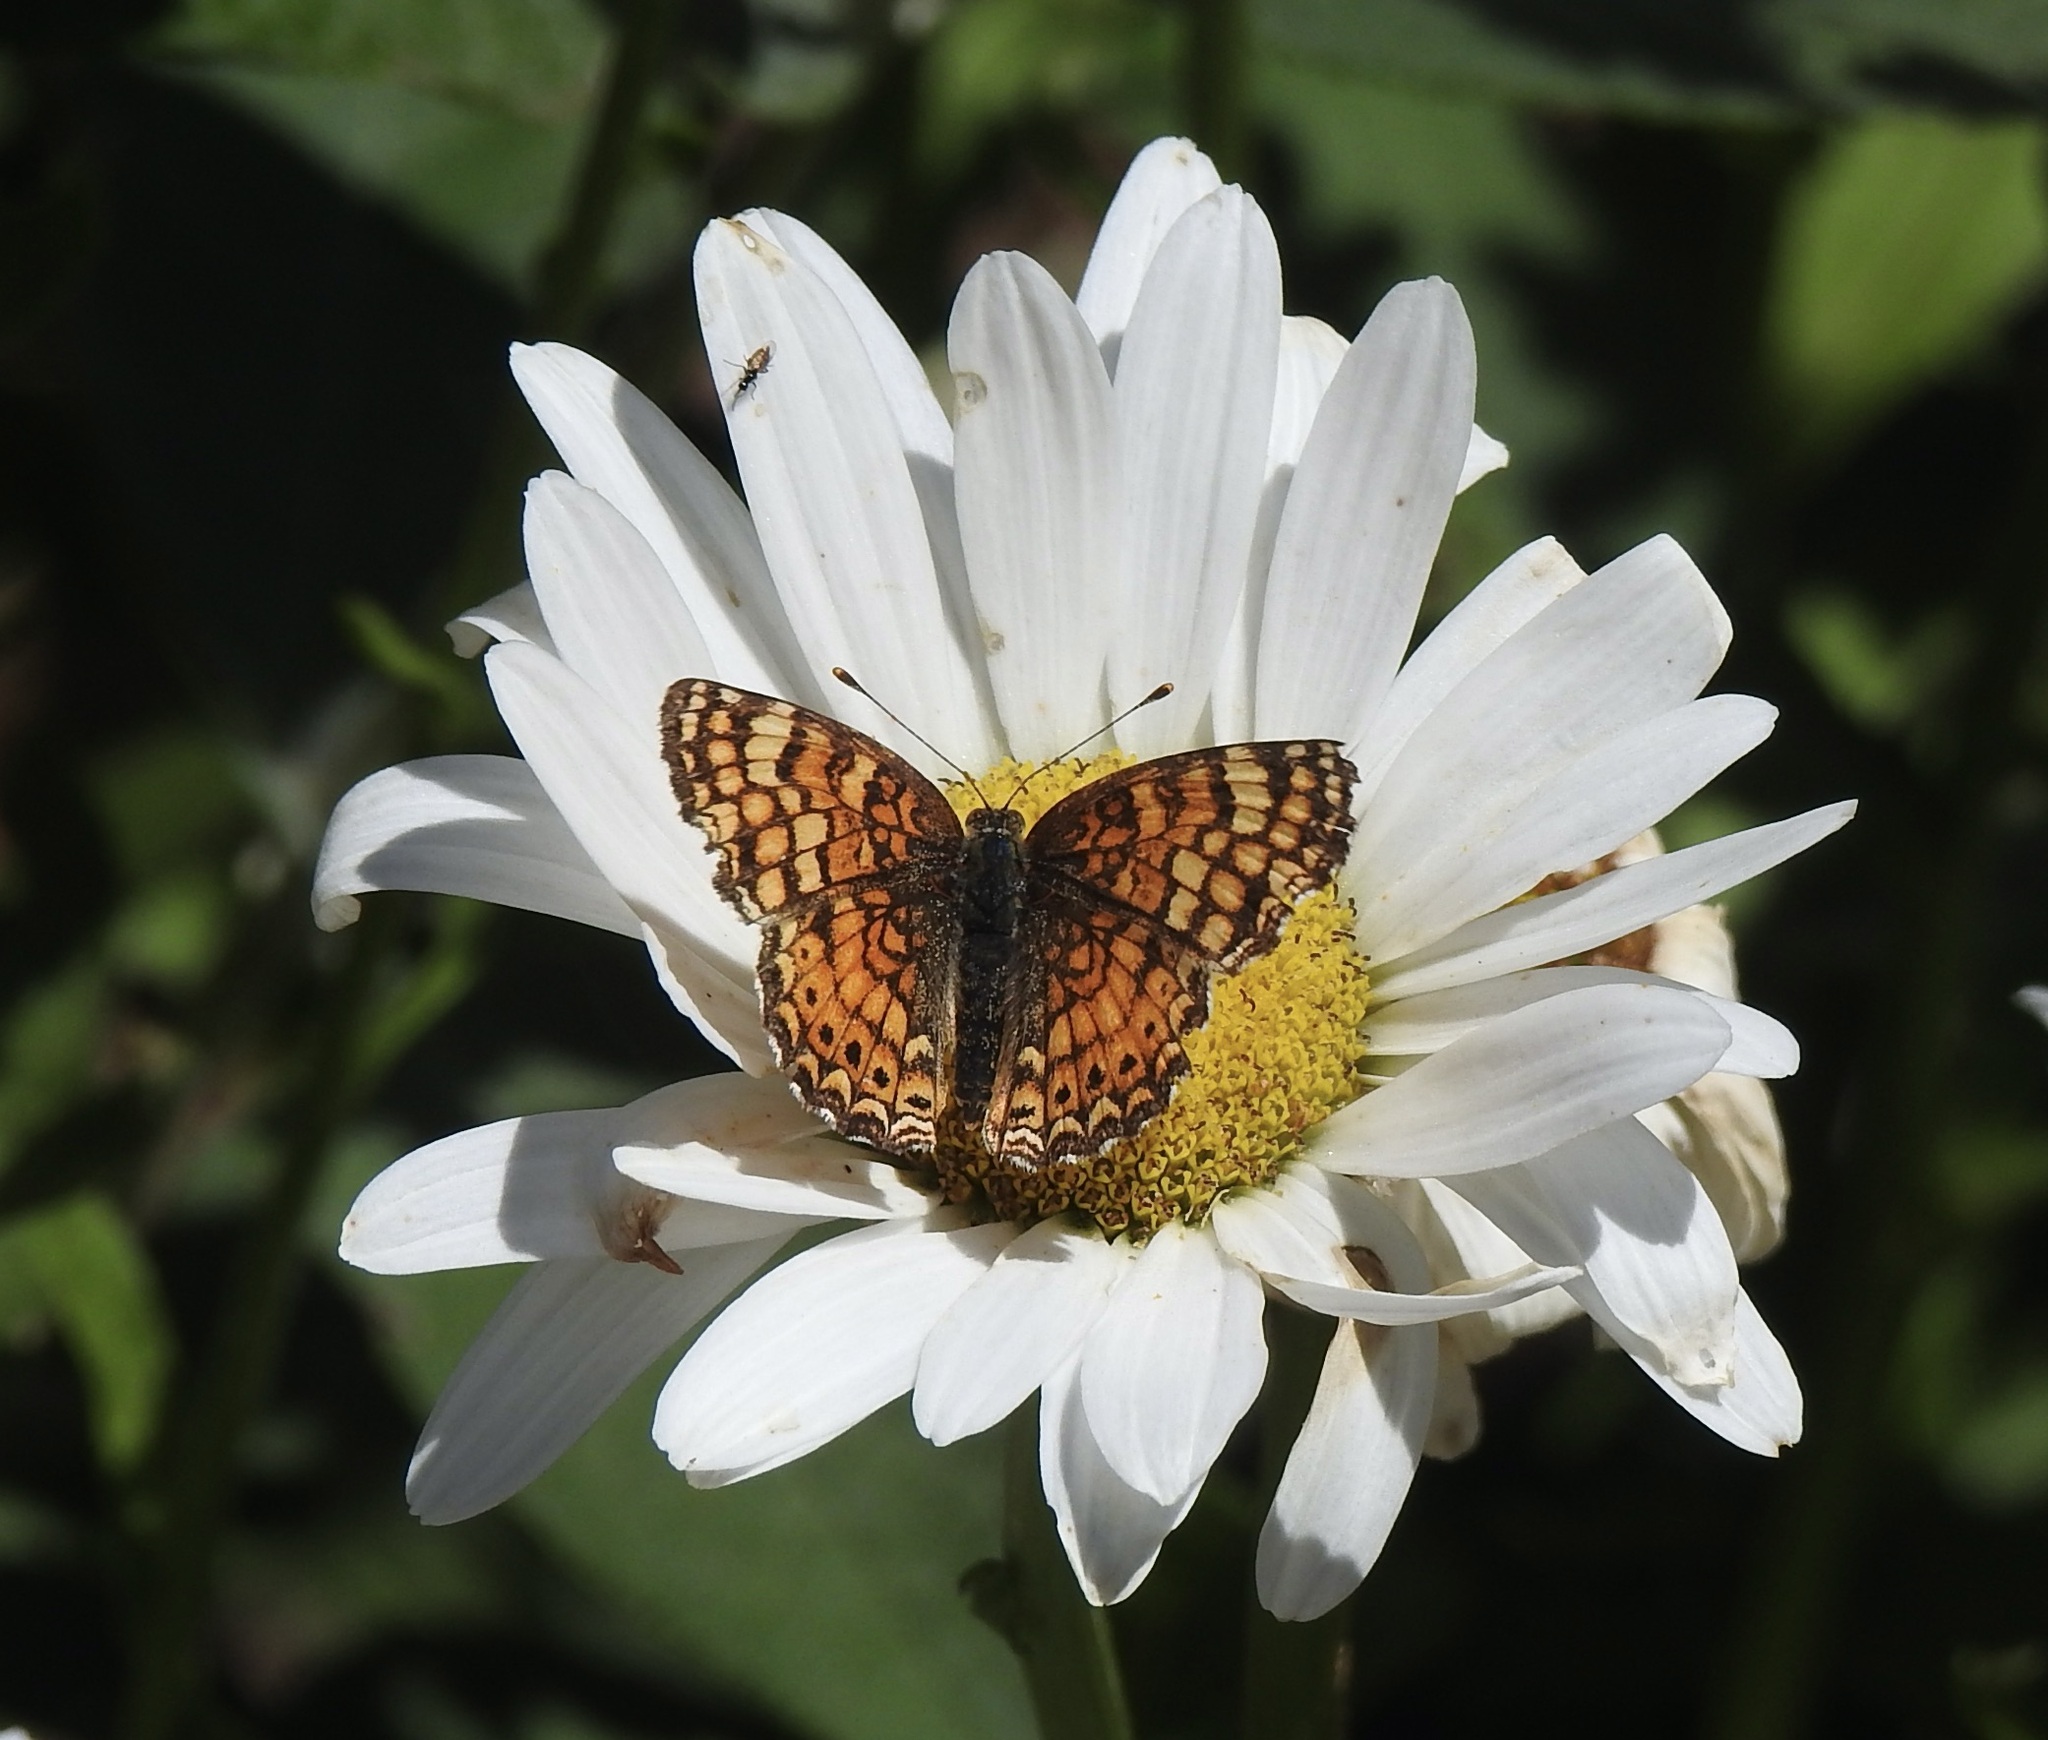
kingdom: Animalia
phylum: Arthropoda
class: Insecta
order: Lepidoptera
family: Nymphalidae
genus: Eresia
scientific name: Eresia aveyrona
